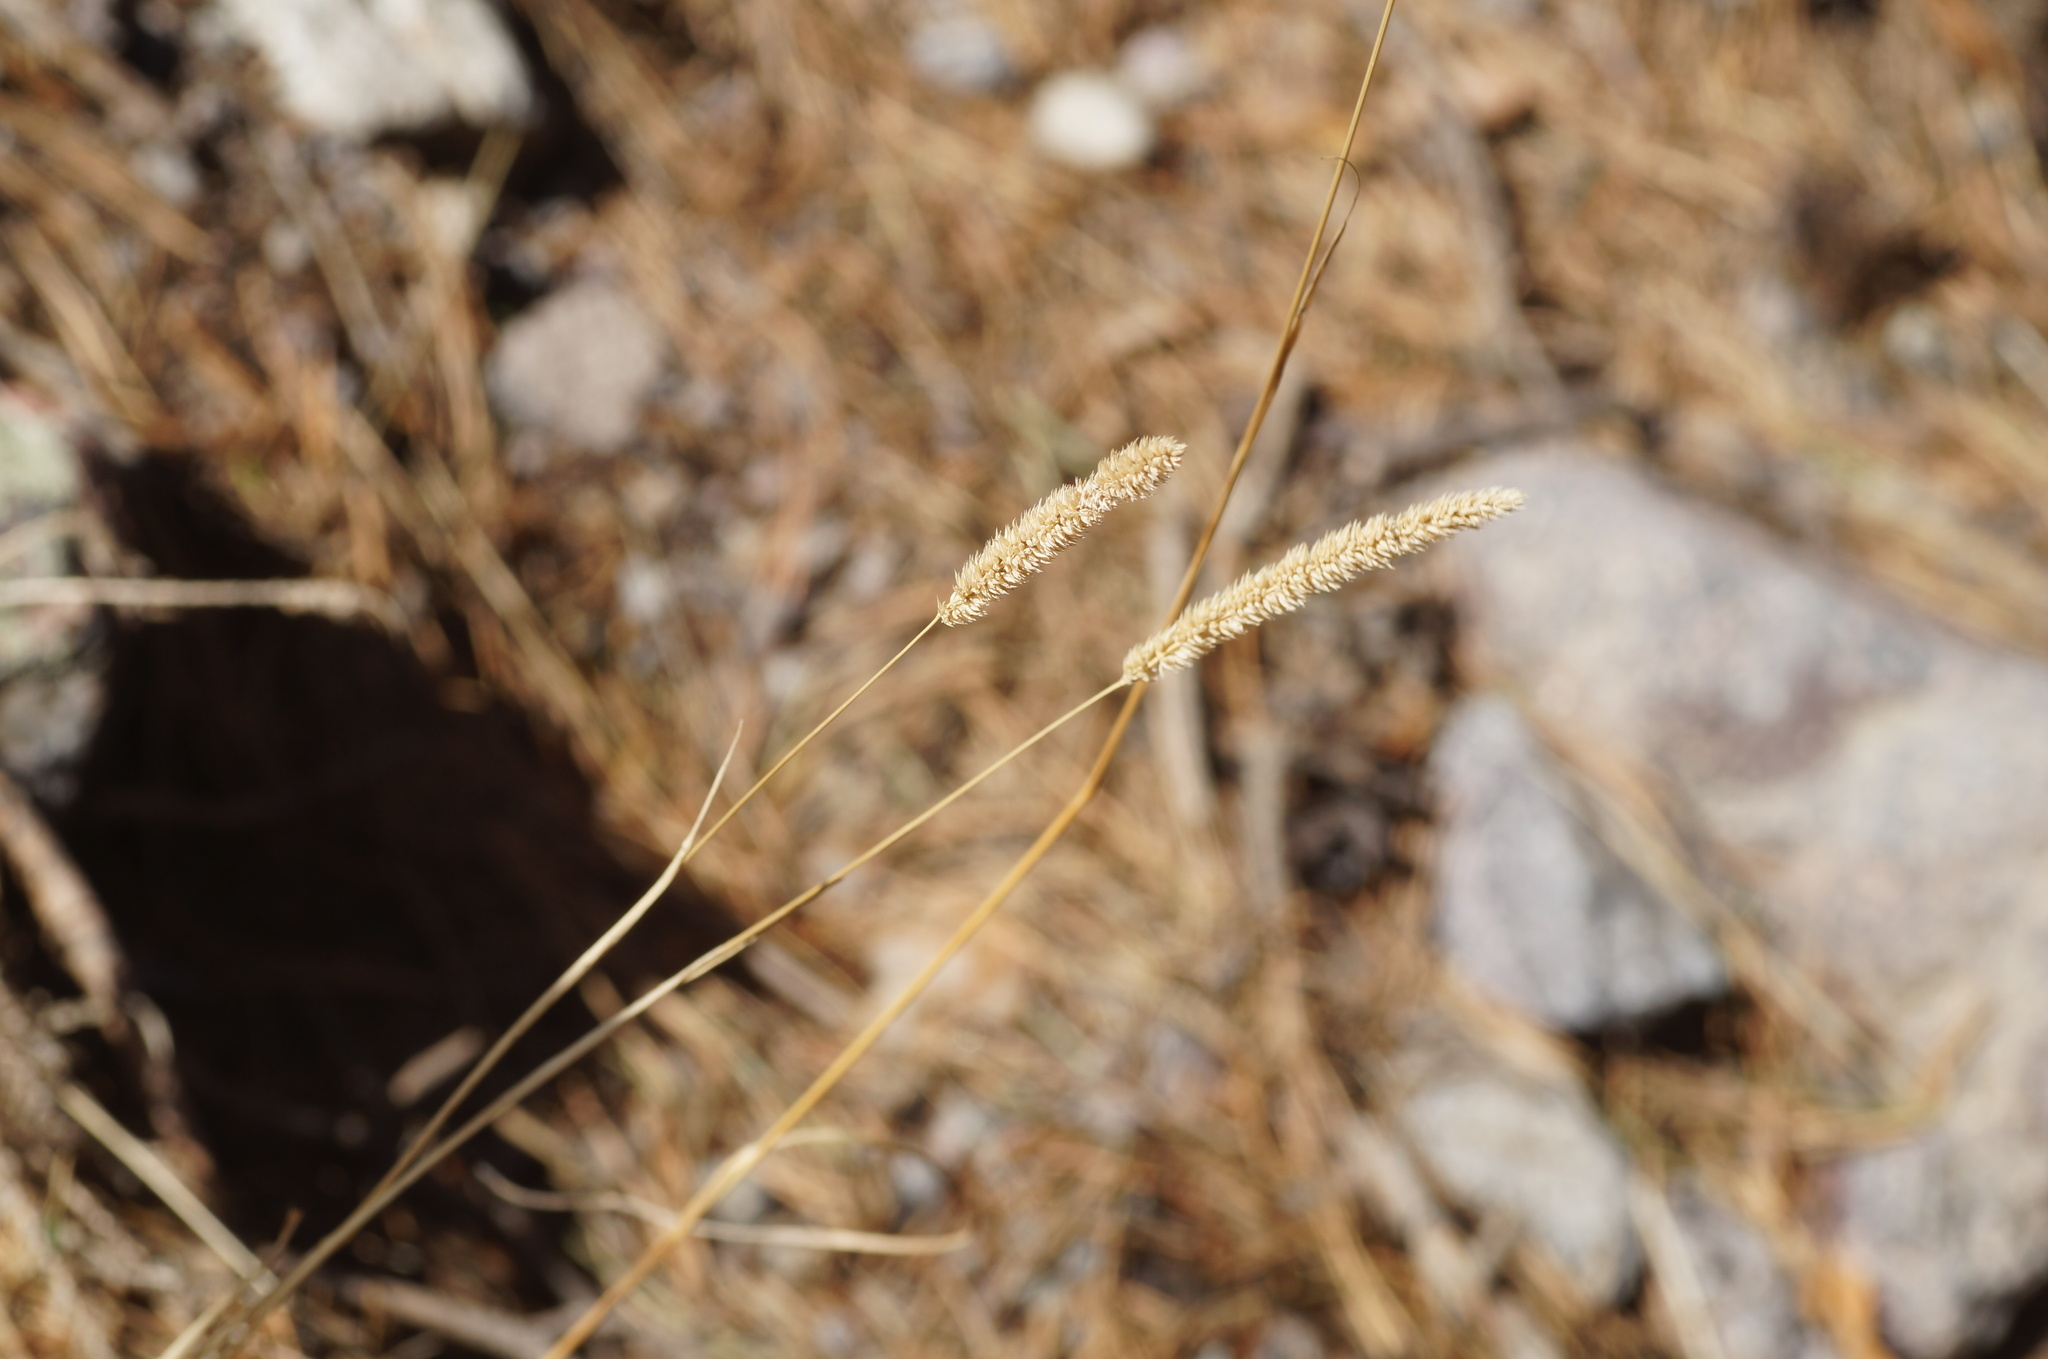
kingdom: Plantae
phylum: Tracheophyta
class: Liliopsida
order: Poales
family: Poaceae
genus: Phleum
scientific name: Phleum pratense
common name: Timothy grass
